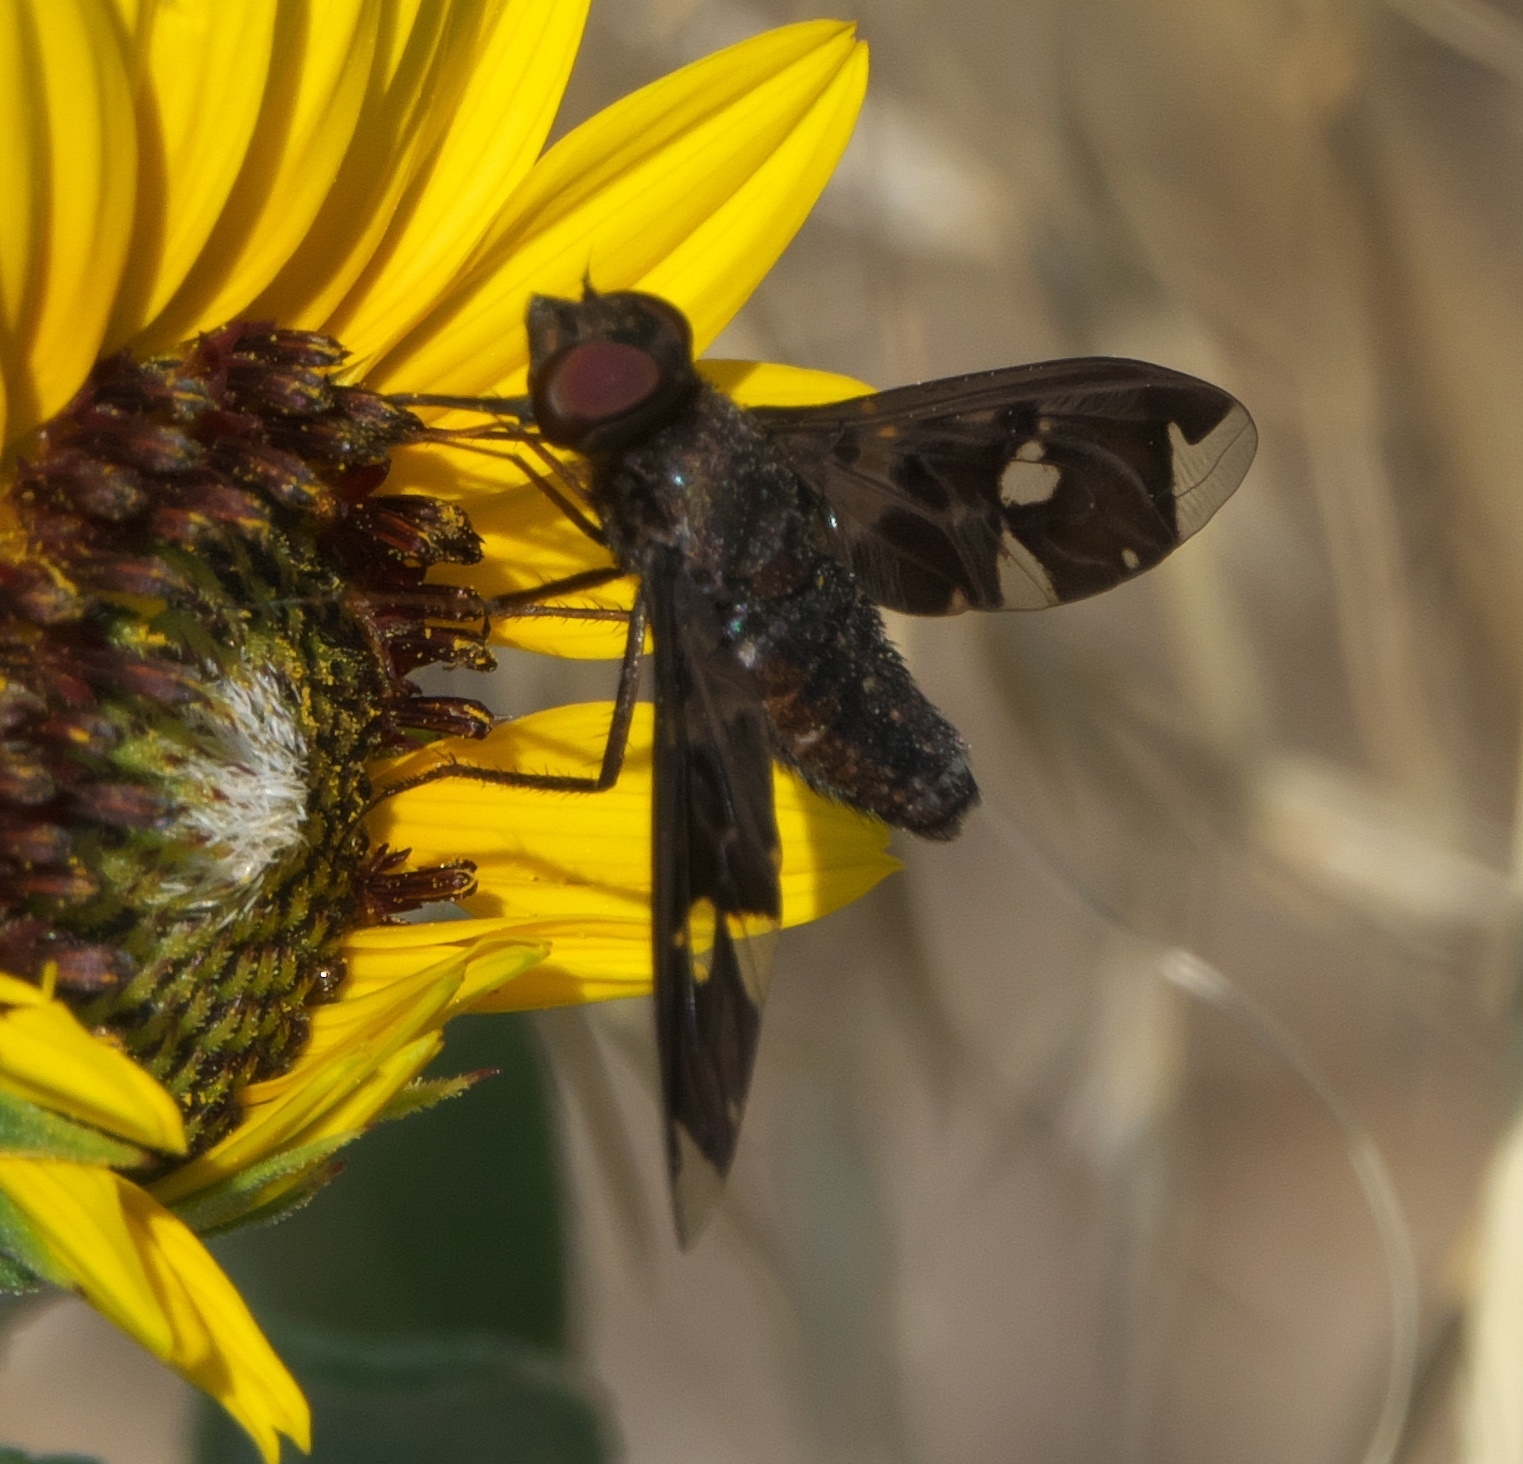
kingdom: Animalia
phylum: Arthropoda
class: Insecta
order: Diptera
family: Bombyliidae
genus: Exoprosopa
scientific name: Exoprosopa decora
